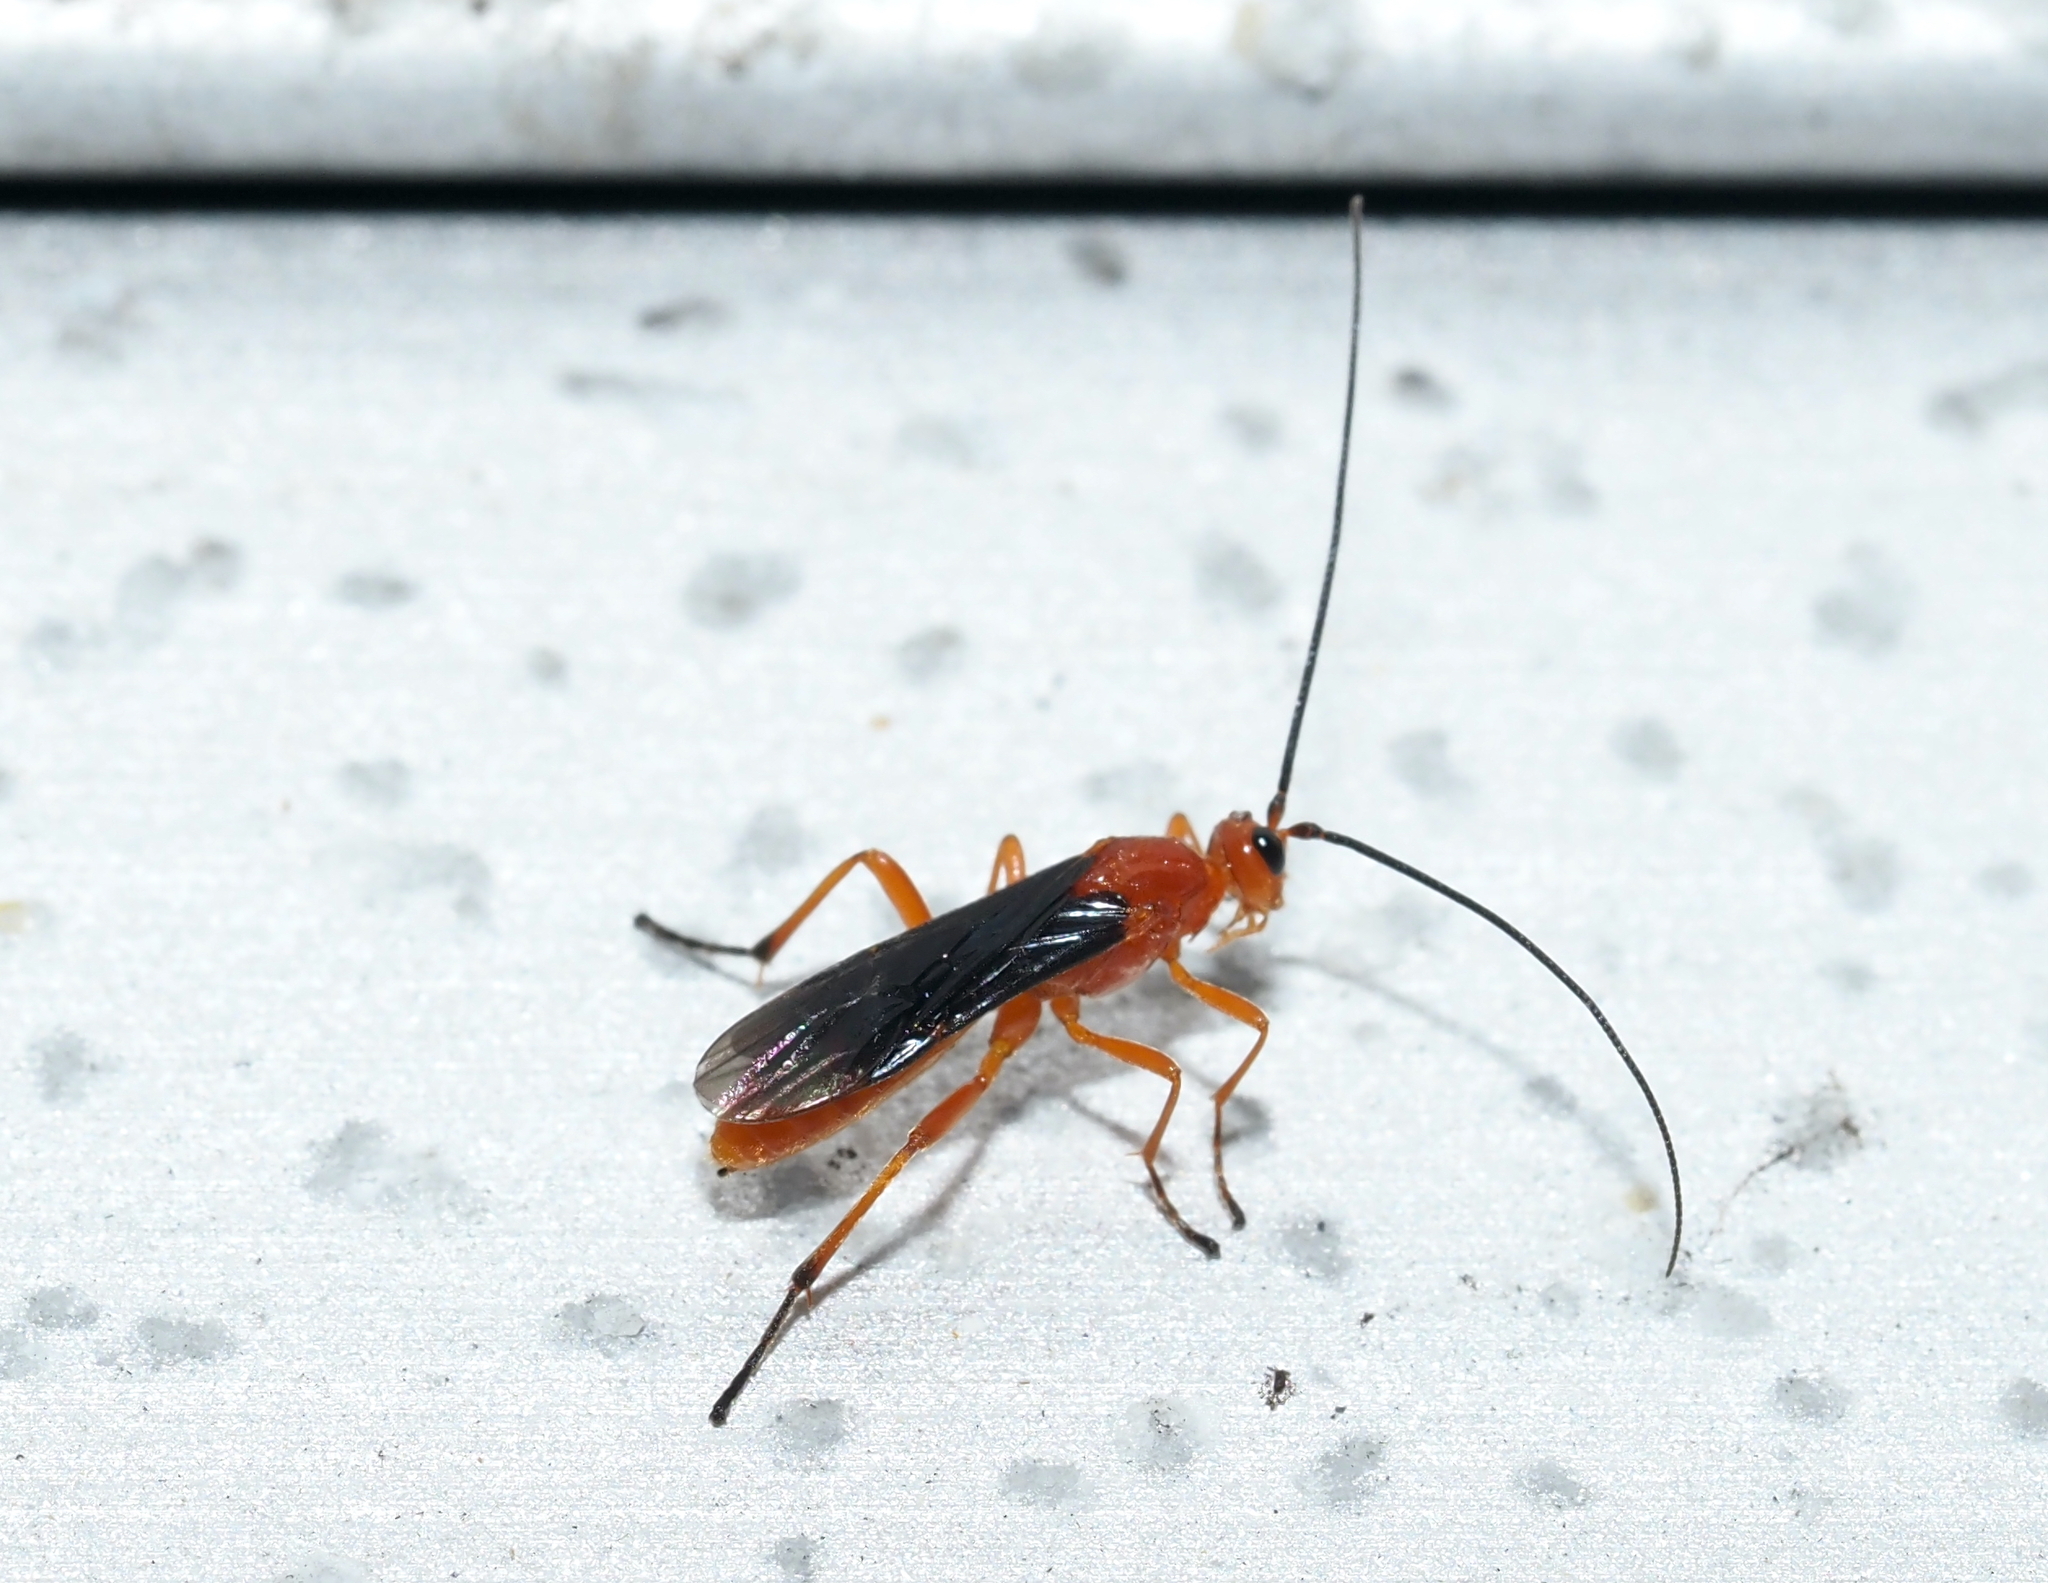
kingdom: Animalia
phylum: Arthropoda
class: Insecta
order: Hymenoptera
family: Braconidae
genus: Aleiodes
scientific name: Aleiodes politiceps
